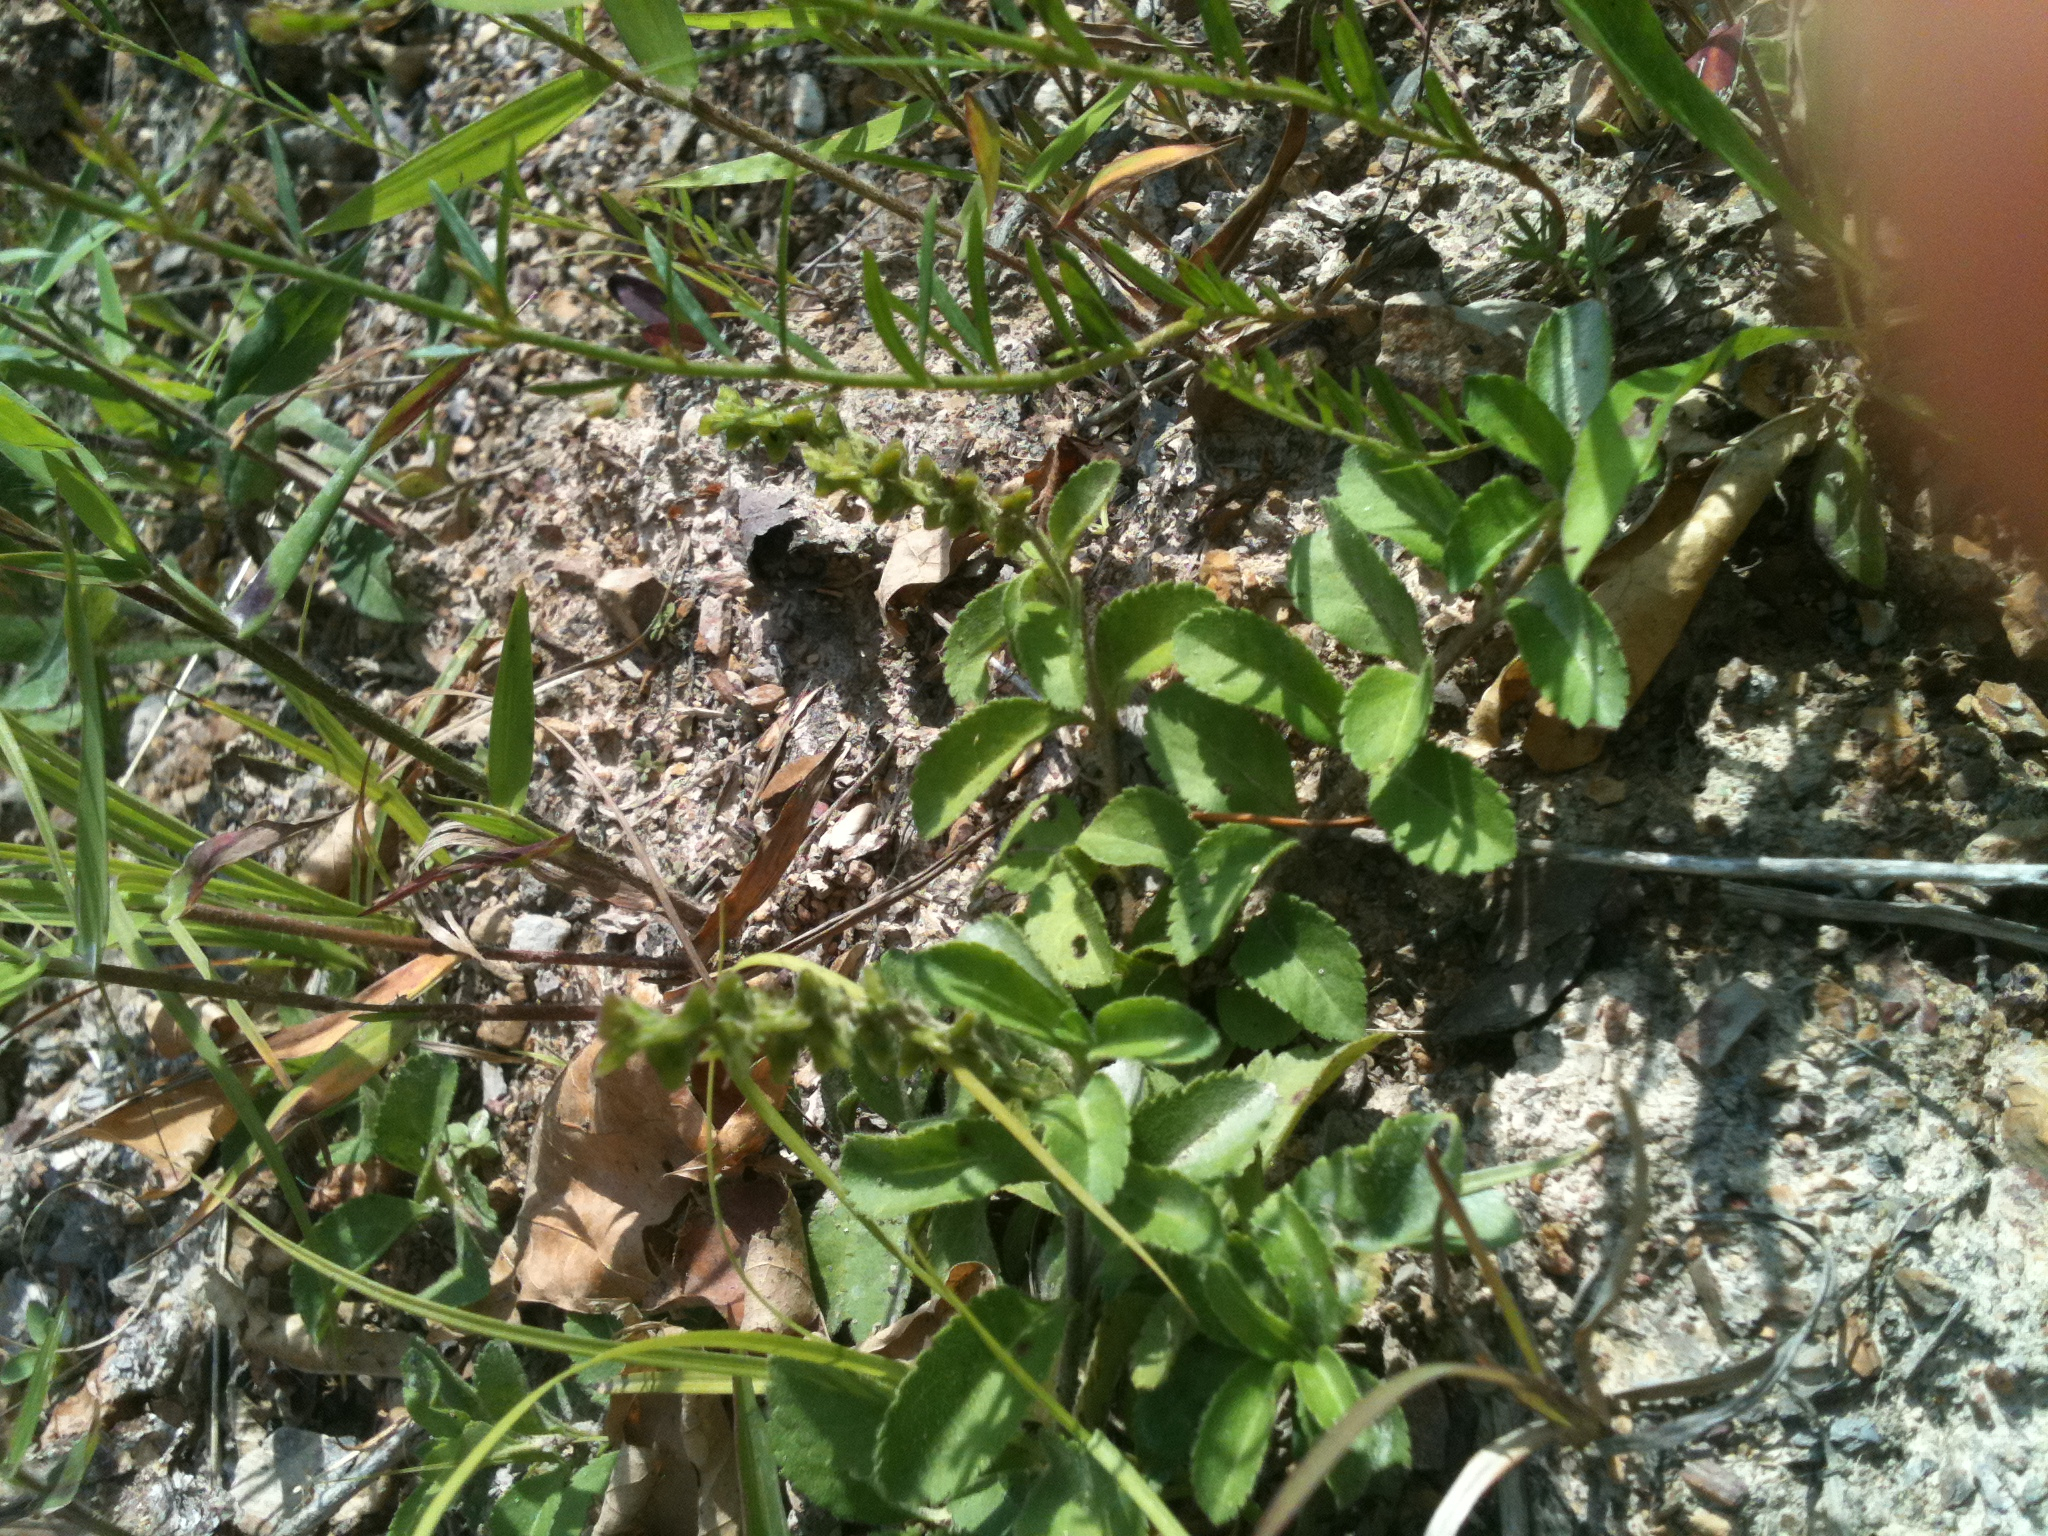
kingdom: Plantae
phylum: Tracheophyta
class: Magnoliopsida
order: Lamiales
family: Plantaginaceae
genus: Veronica
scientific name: Veronica officinalis
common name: Common speedwell
